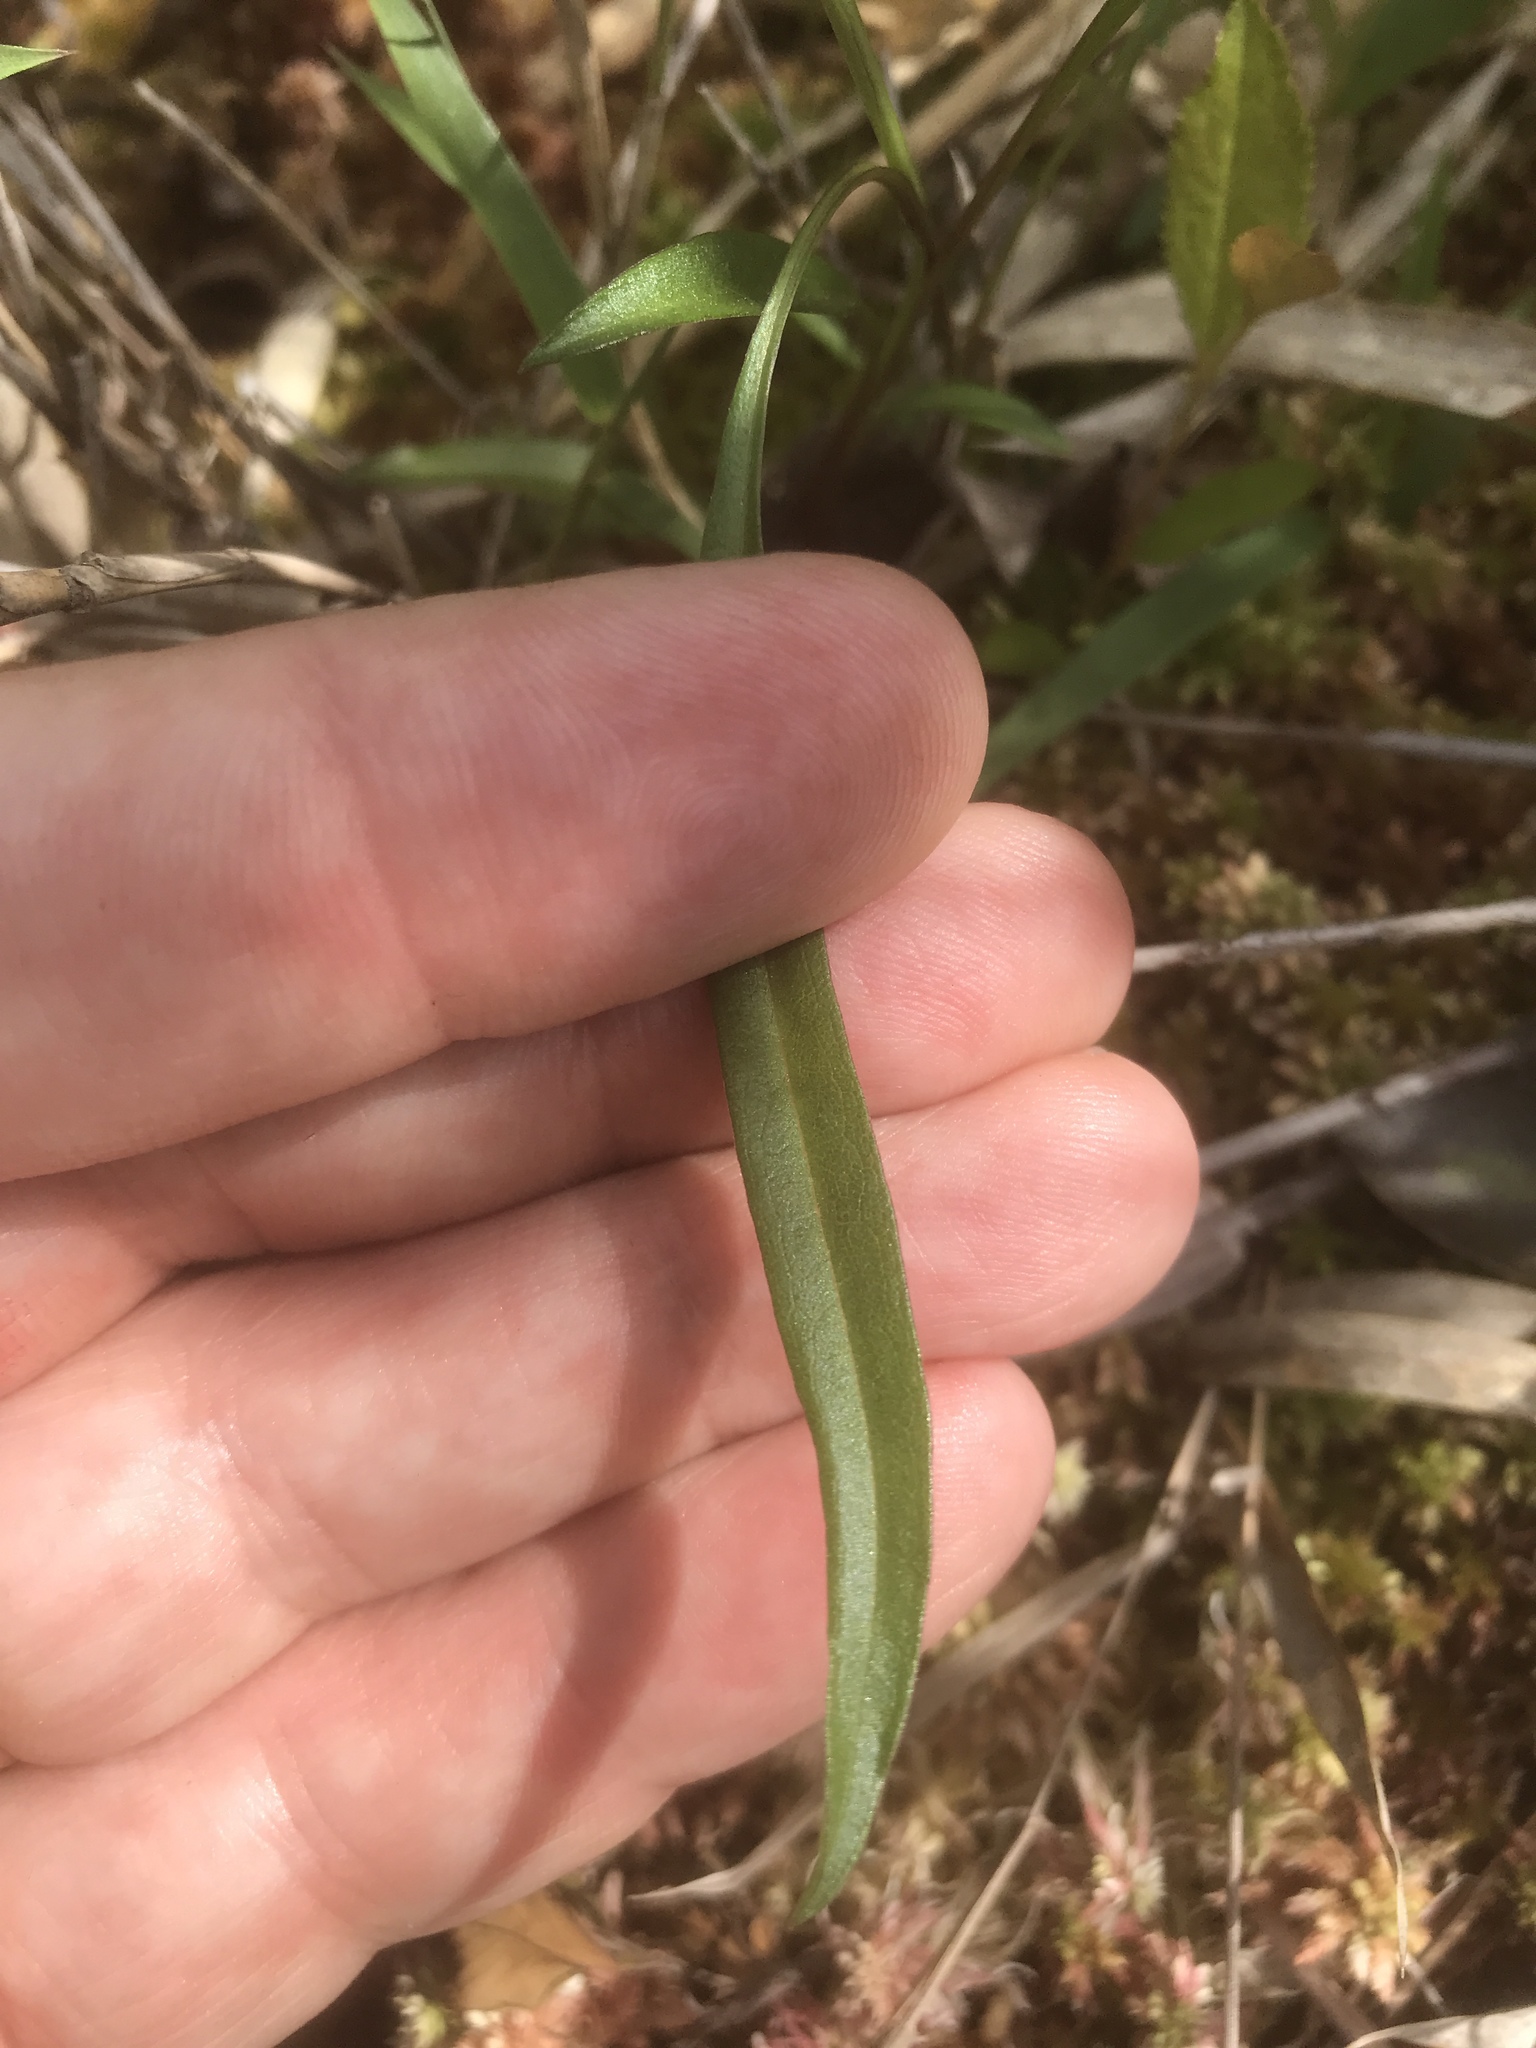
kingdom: Plantae
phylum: Tracheophyta
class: Magnoliopsida
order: Asterales
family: Asteraceae
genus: Eurybia
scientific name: Eurybia paludosa
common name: Southern swamp aster
